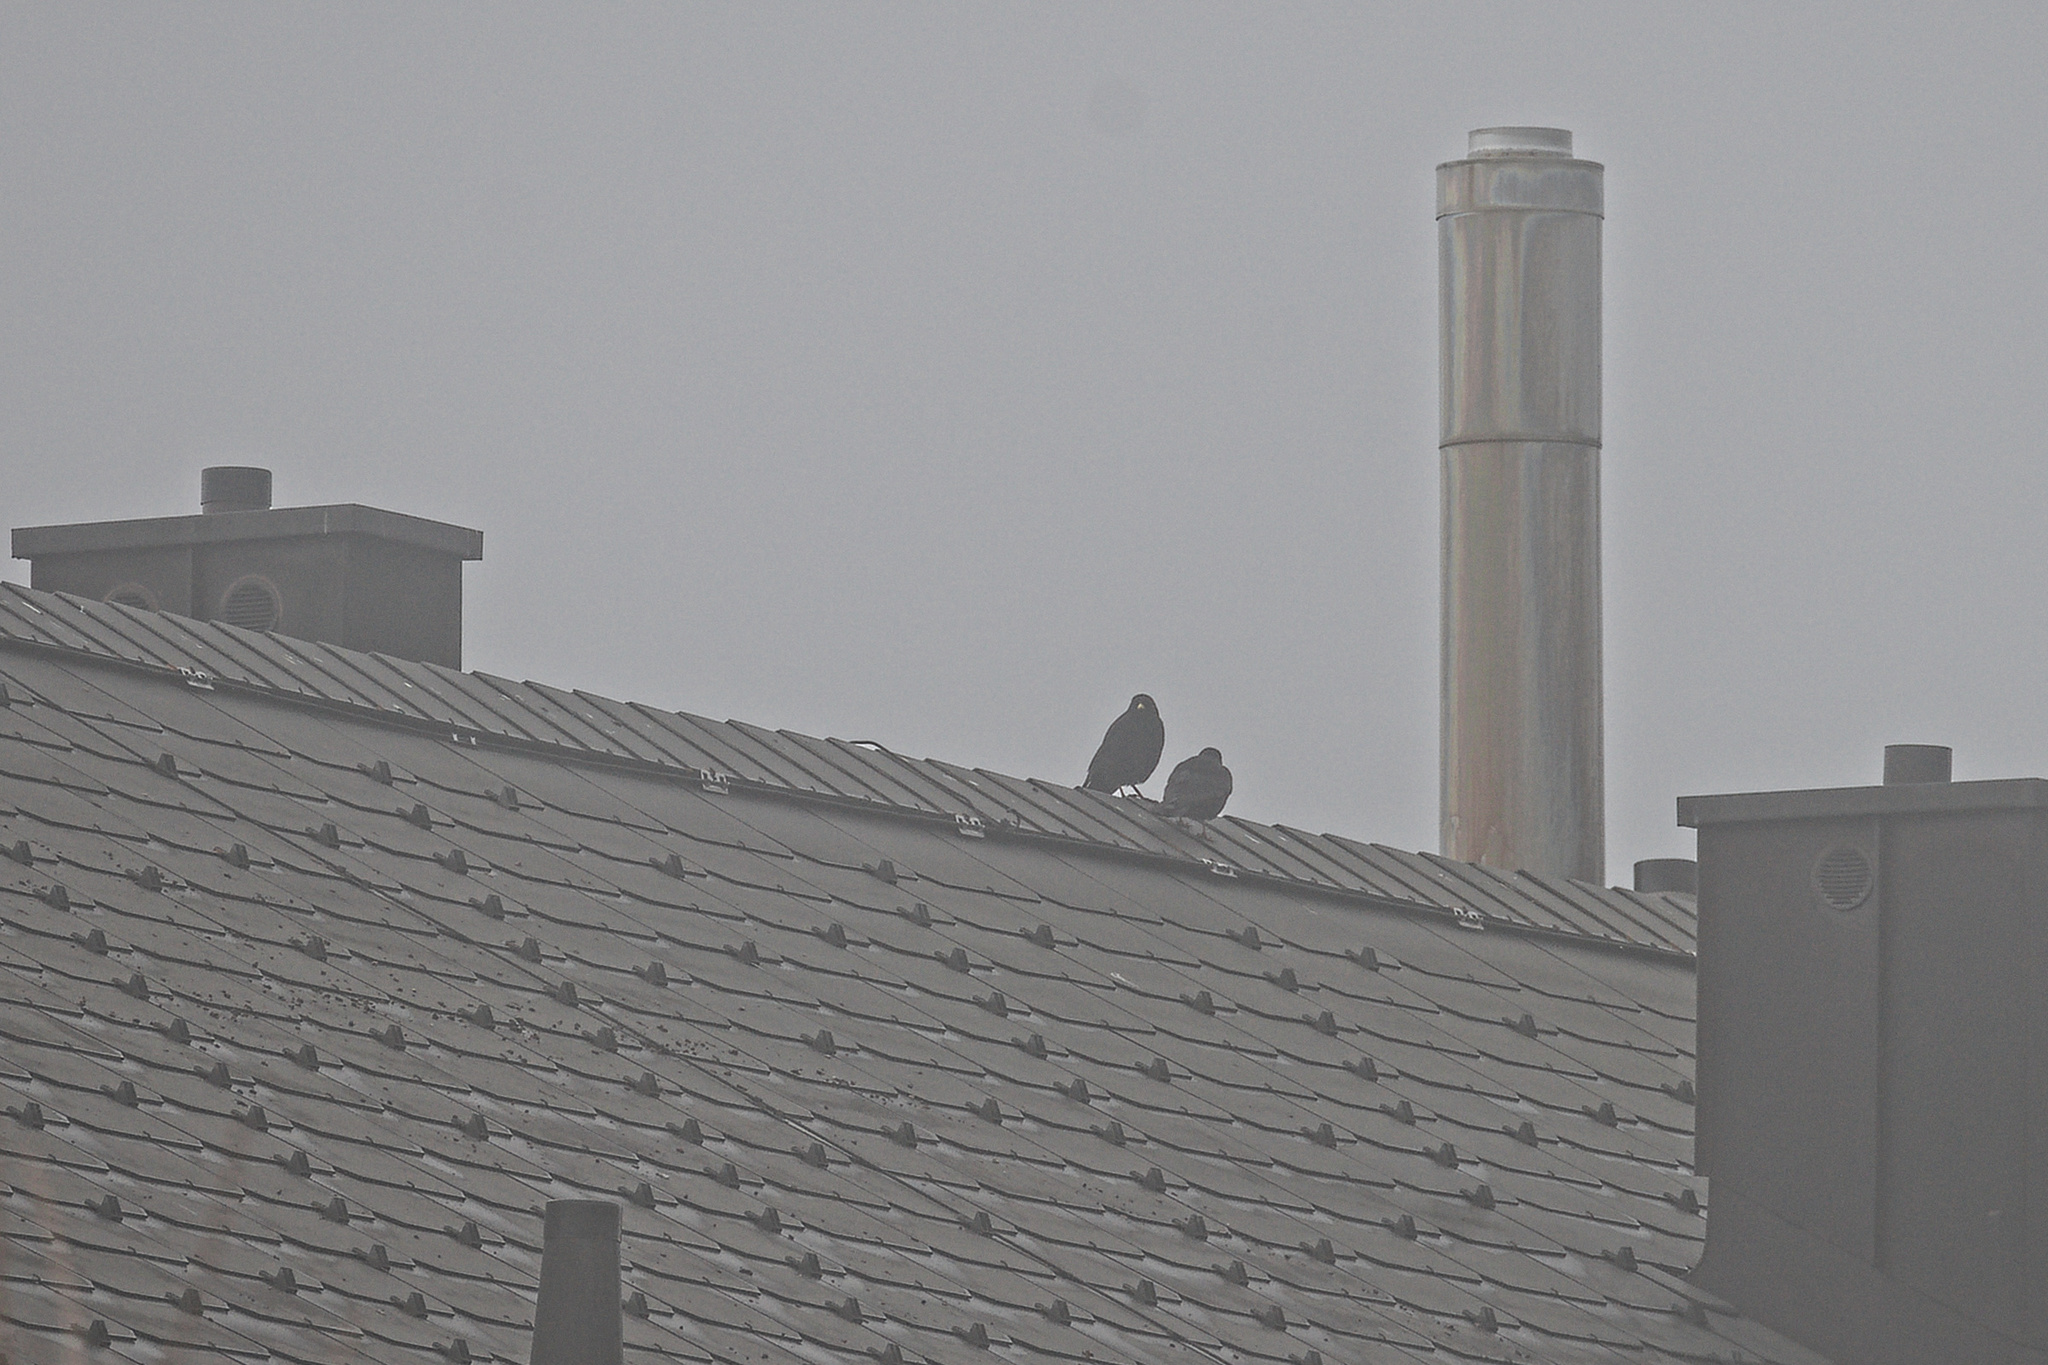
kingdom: Animalia
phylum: Chordata
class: Aves
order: Passeriformes
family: Corvidae
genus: Pyrrhocorax
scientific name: Pyrrhocorax graculus
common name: Alpine chough
